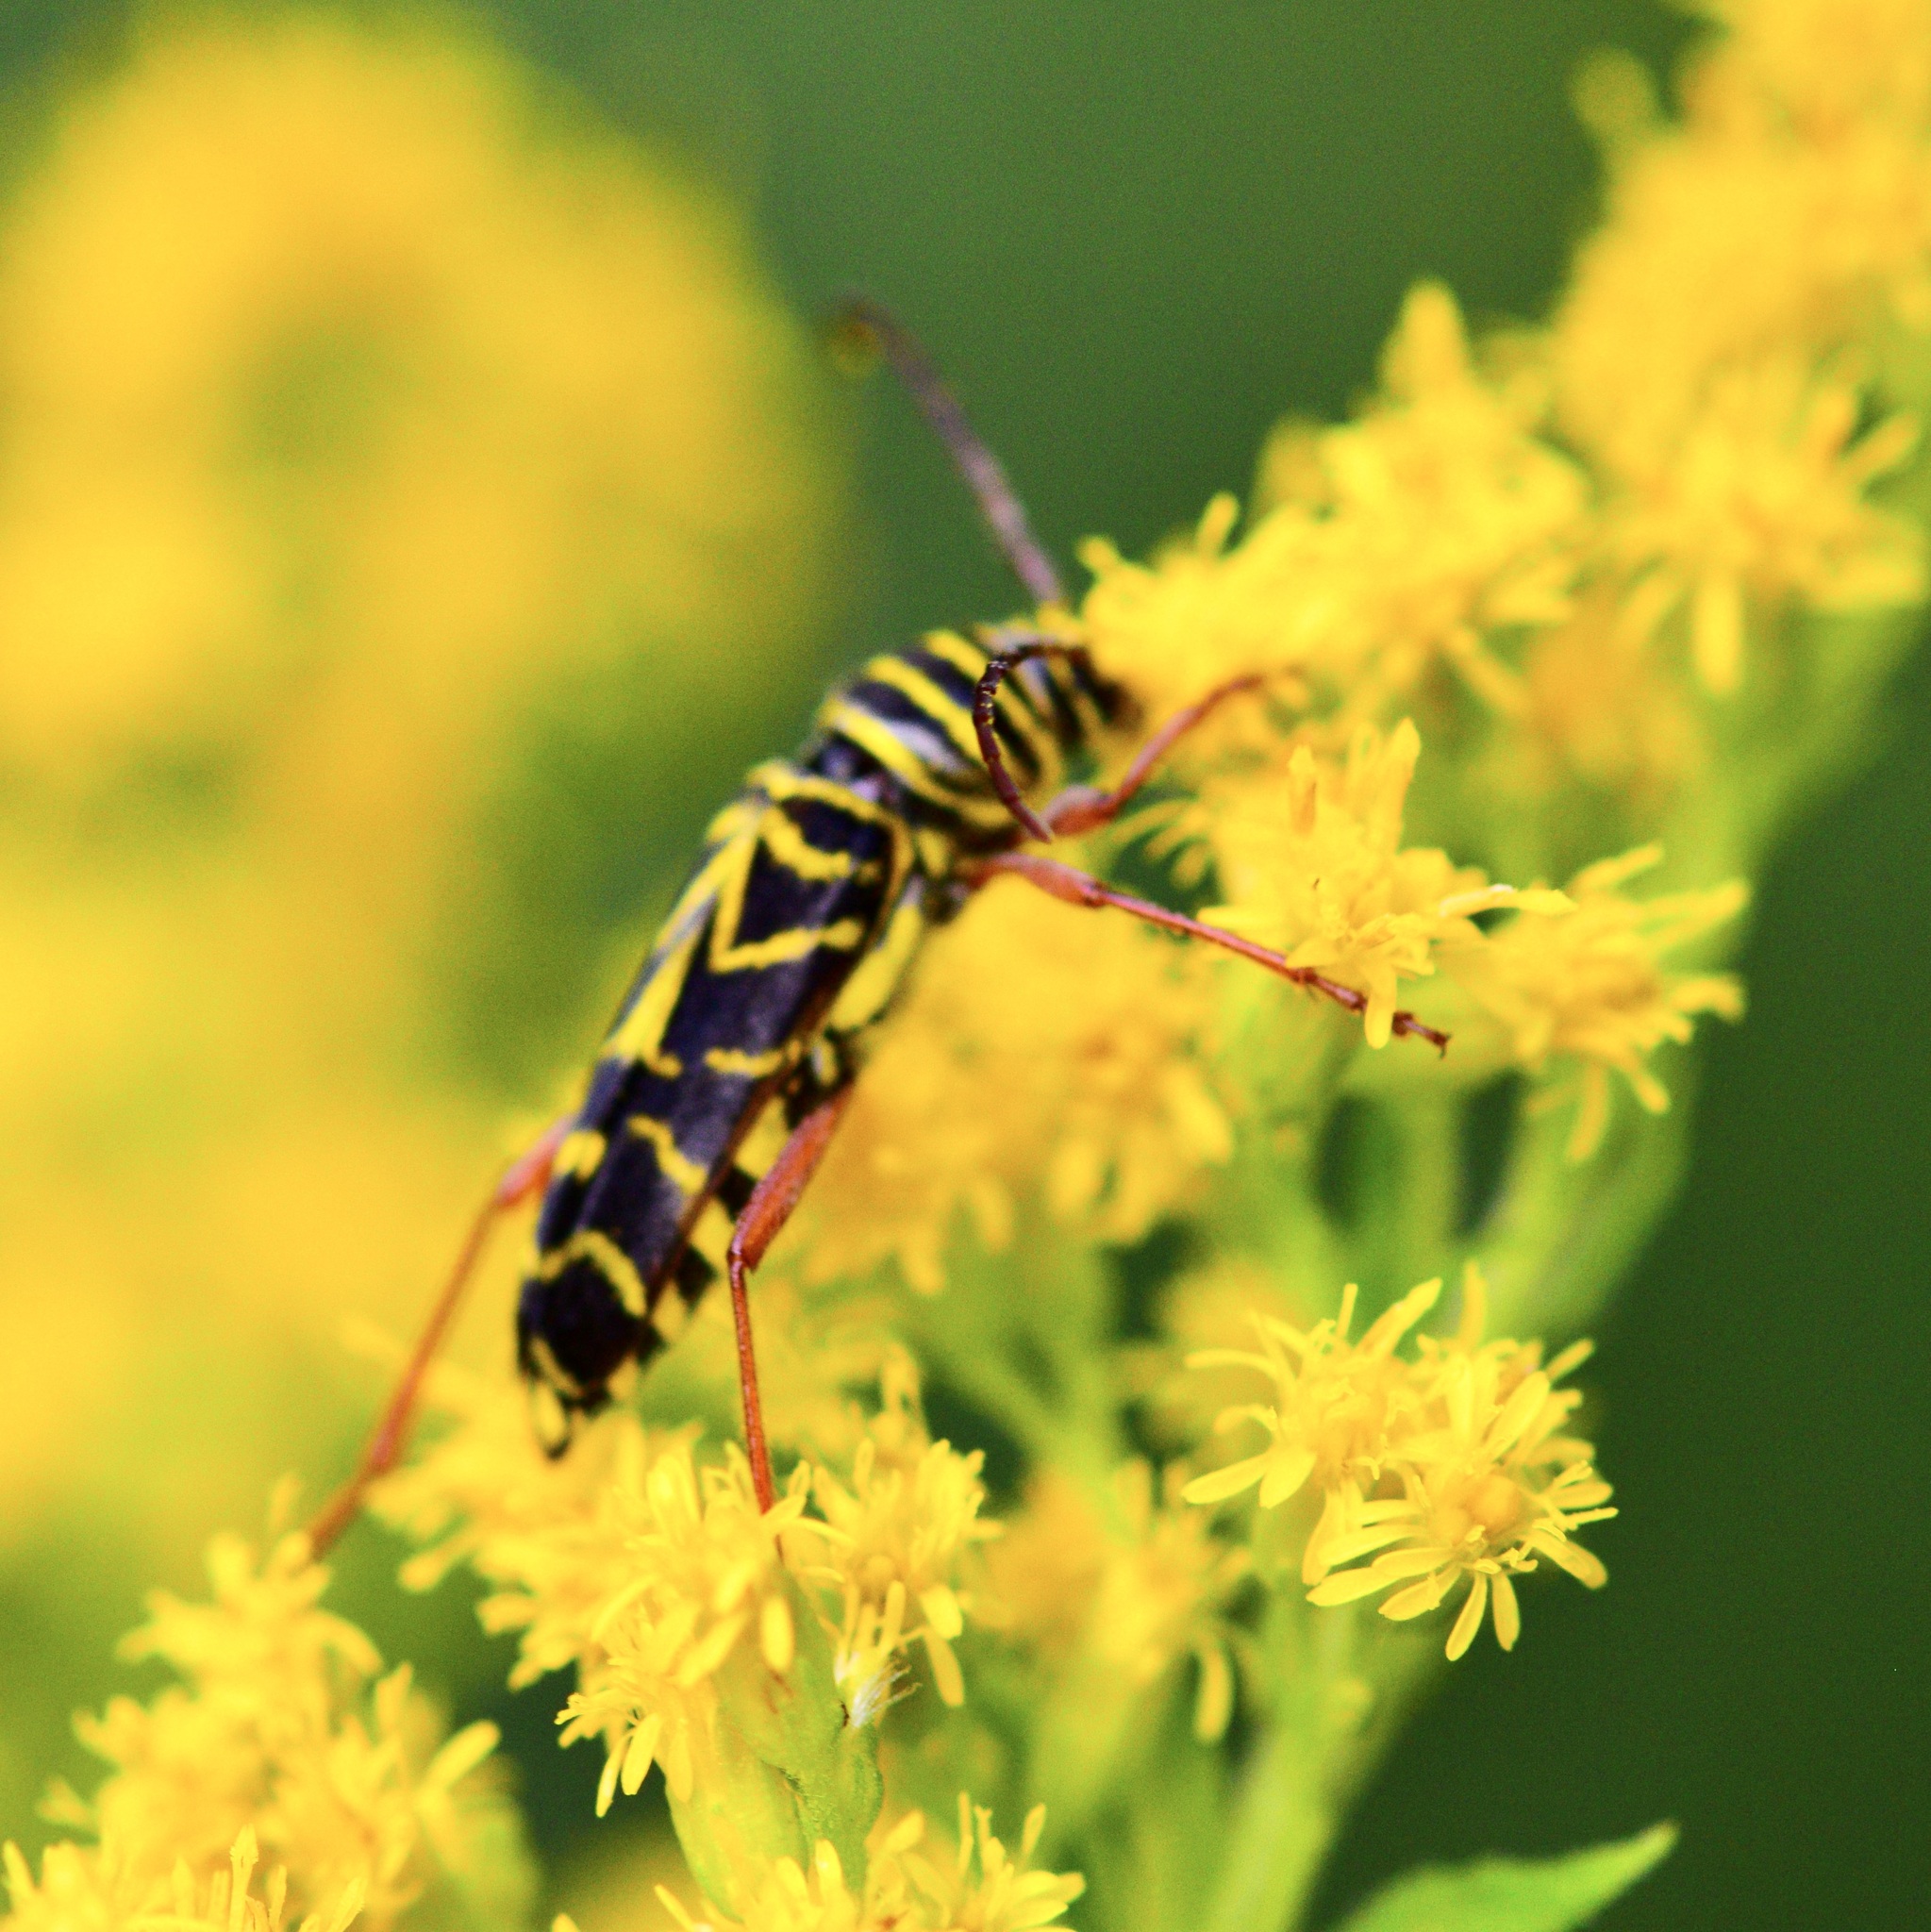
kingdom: Animalia
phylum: Arthropoda
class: Insecta
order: Coleoptera
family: Cerambycidae
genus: Megacyllene
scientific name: Megacyllene robiniae
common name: Locust borer
